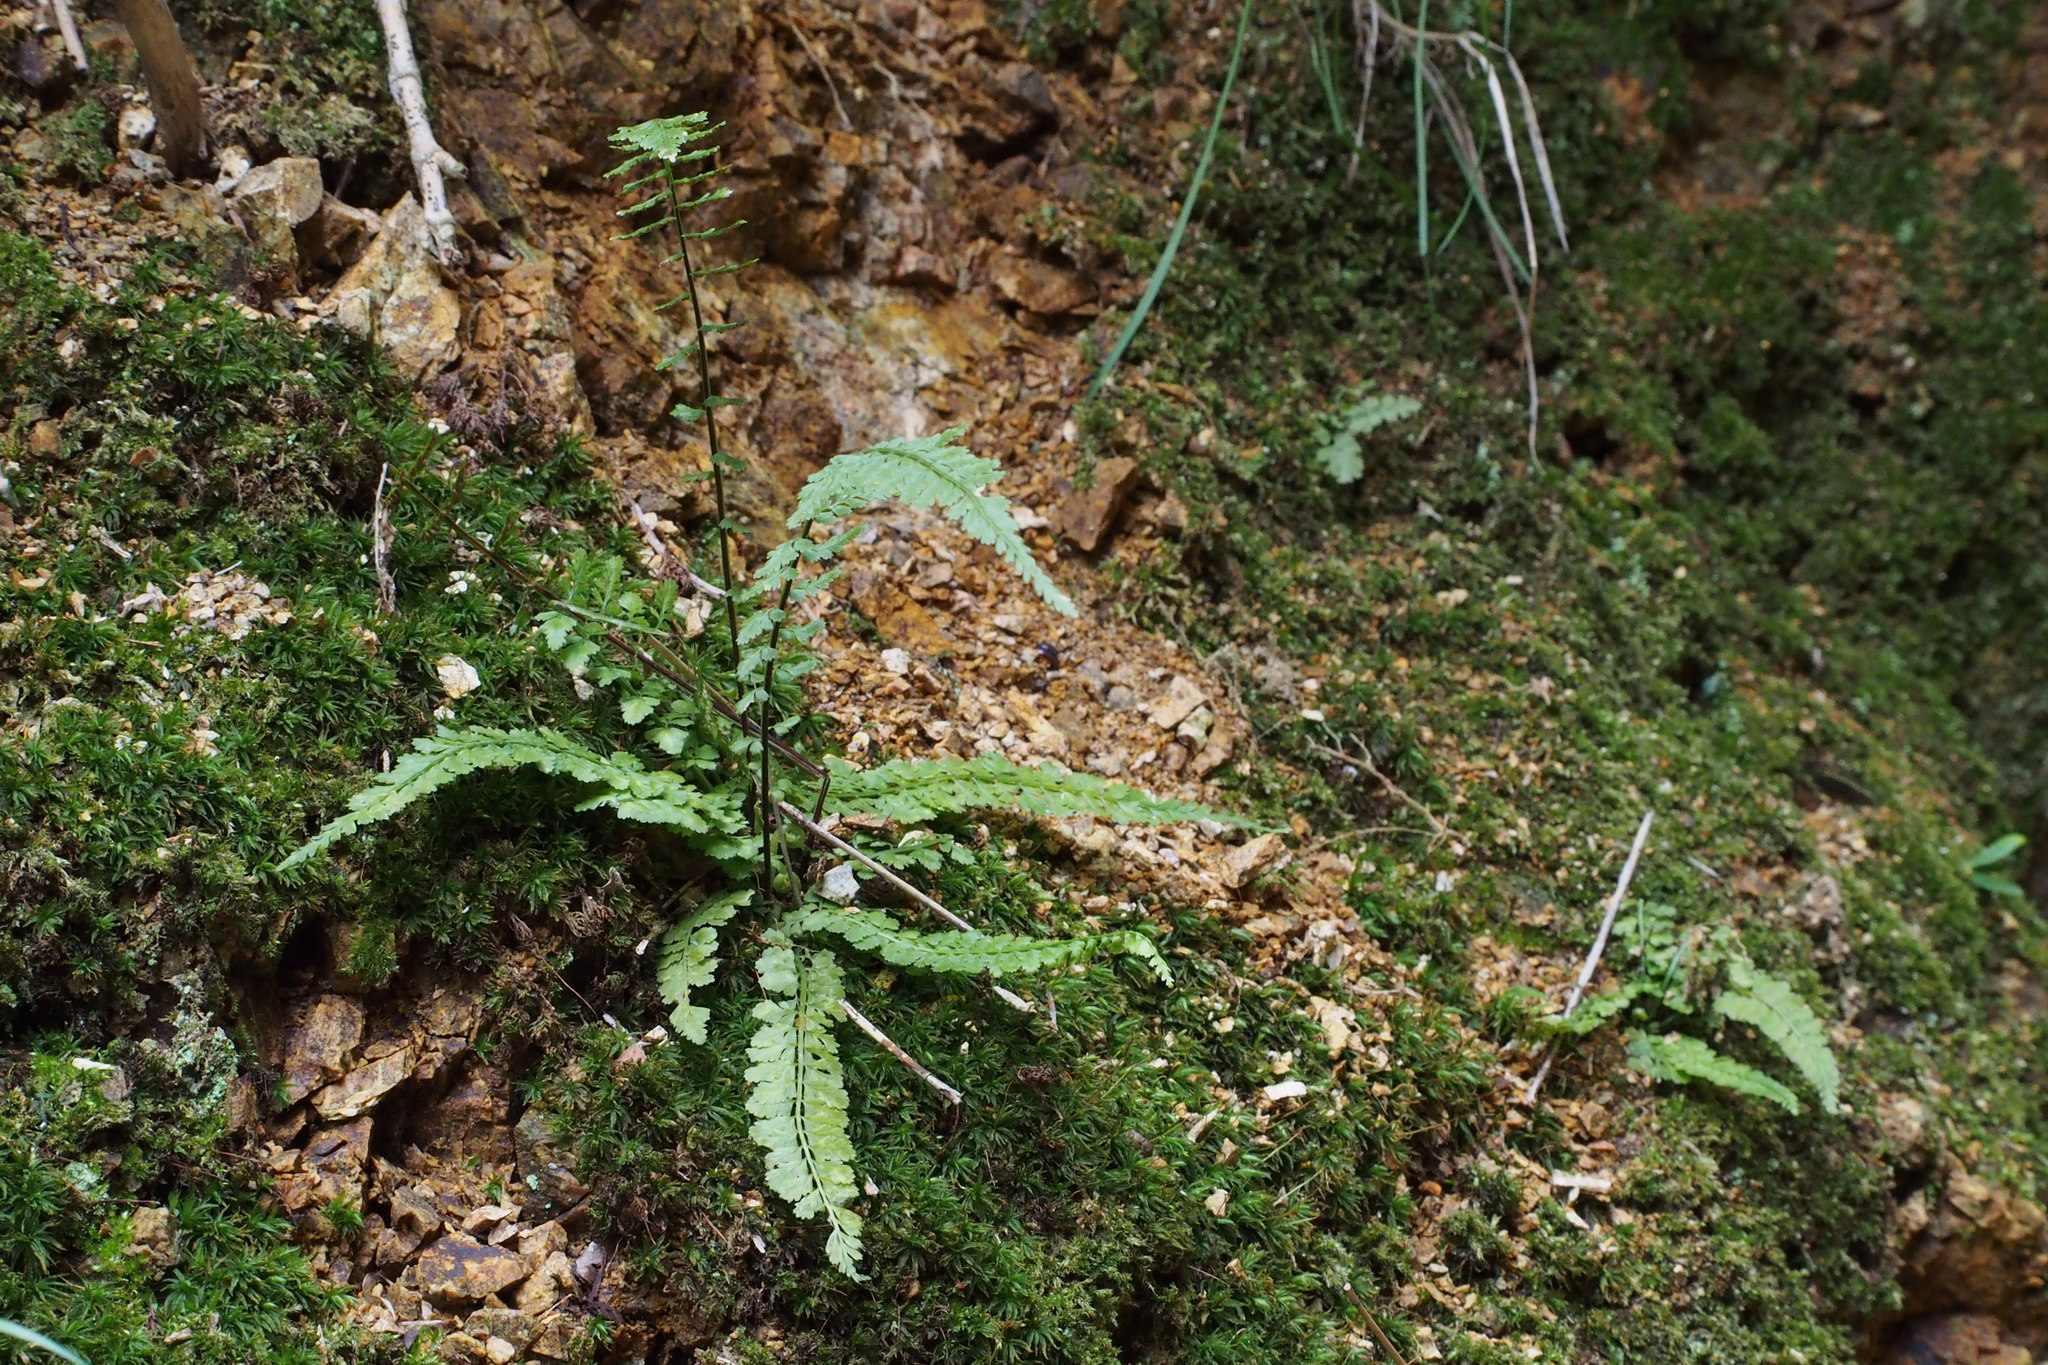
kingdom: Plantae
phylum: Tracheophyta
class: Polypodiopsida
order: Polypodiales
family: Aspleniaceae
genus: Asplenium
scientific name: Asplenium incisum
